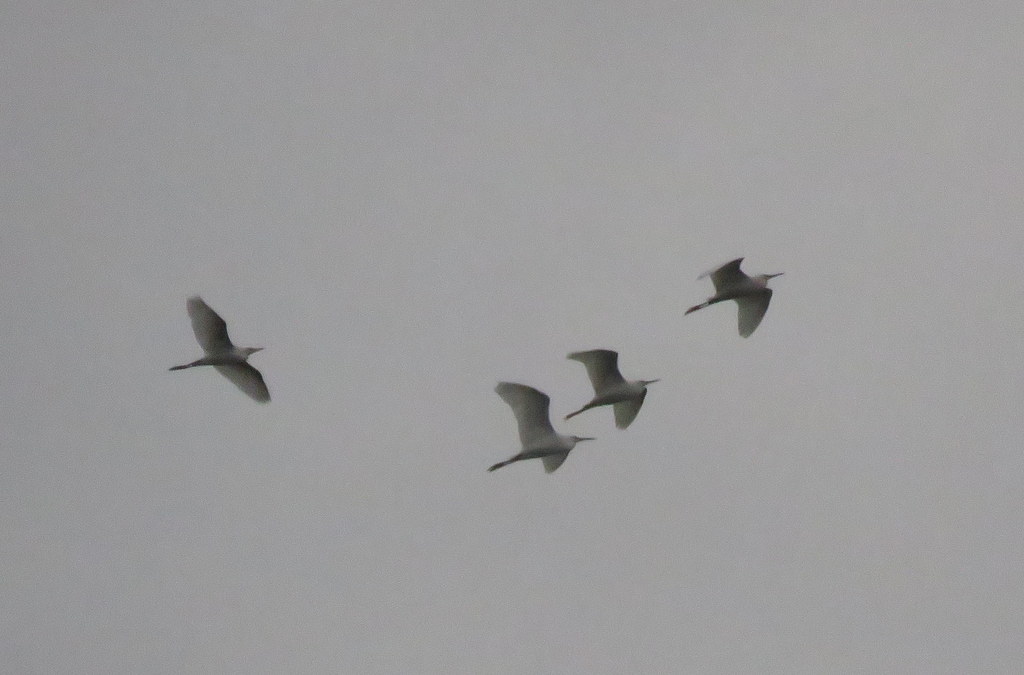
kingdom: Animalia
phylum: Chordata
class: Aves
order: Pelecaniformes
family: Ardeidae
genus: Egretta
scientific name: Egretta thula
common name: Snowy egret
